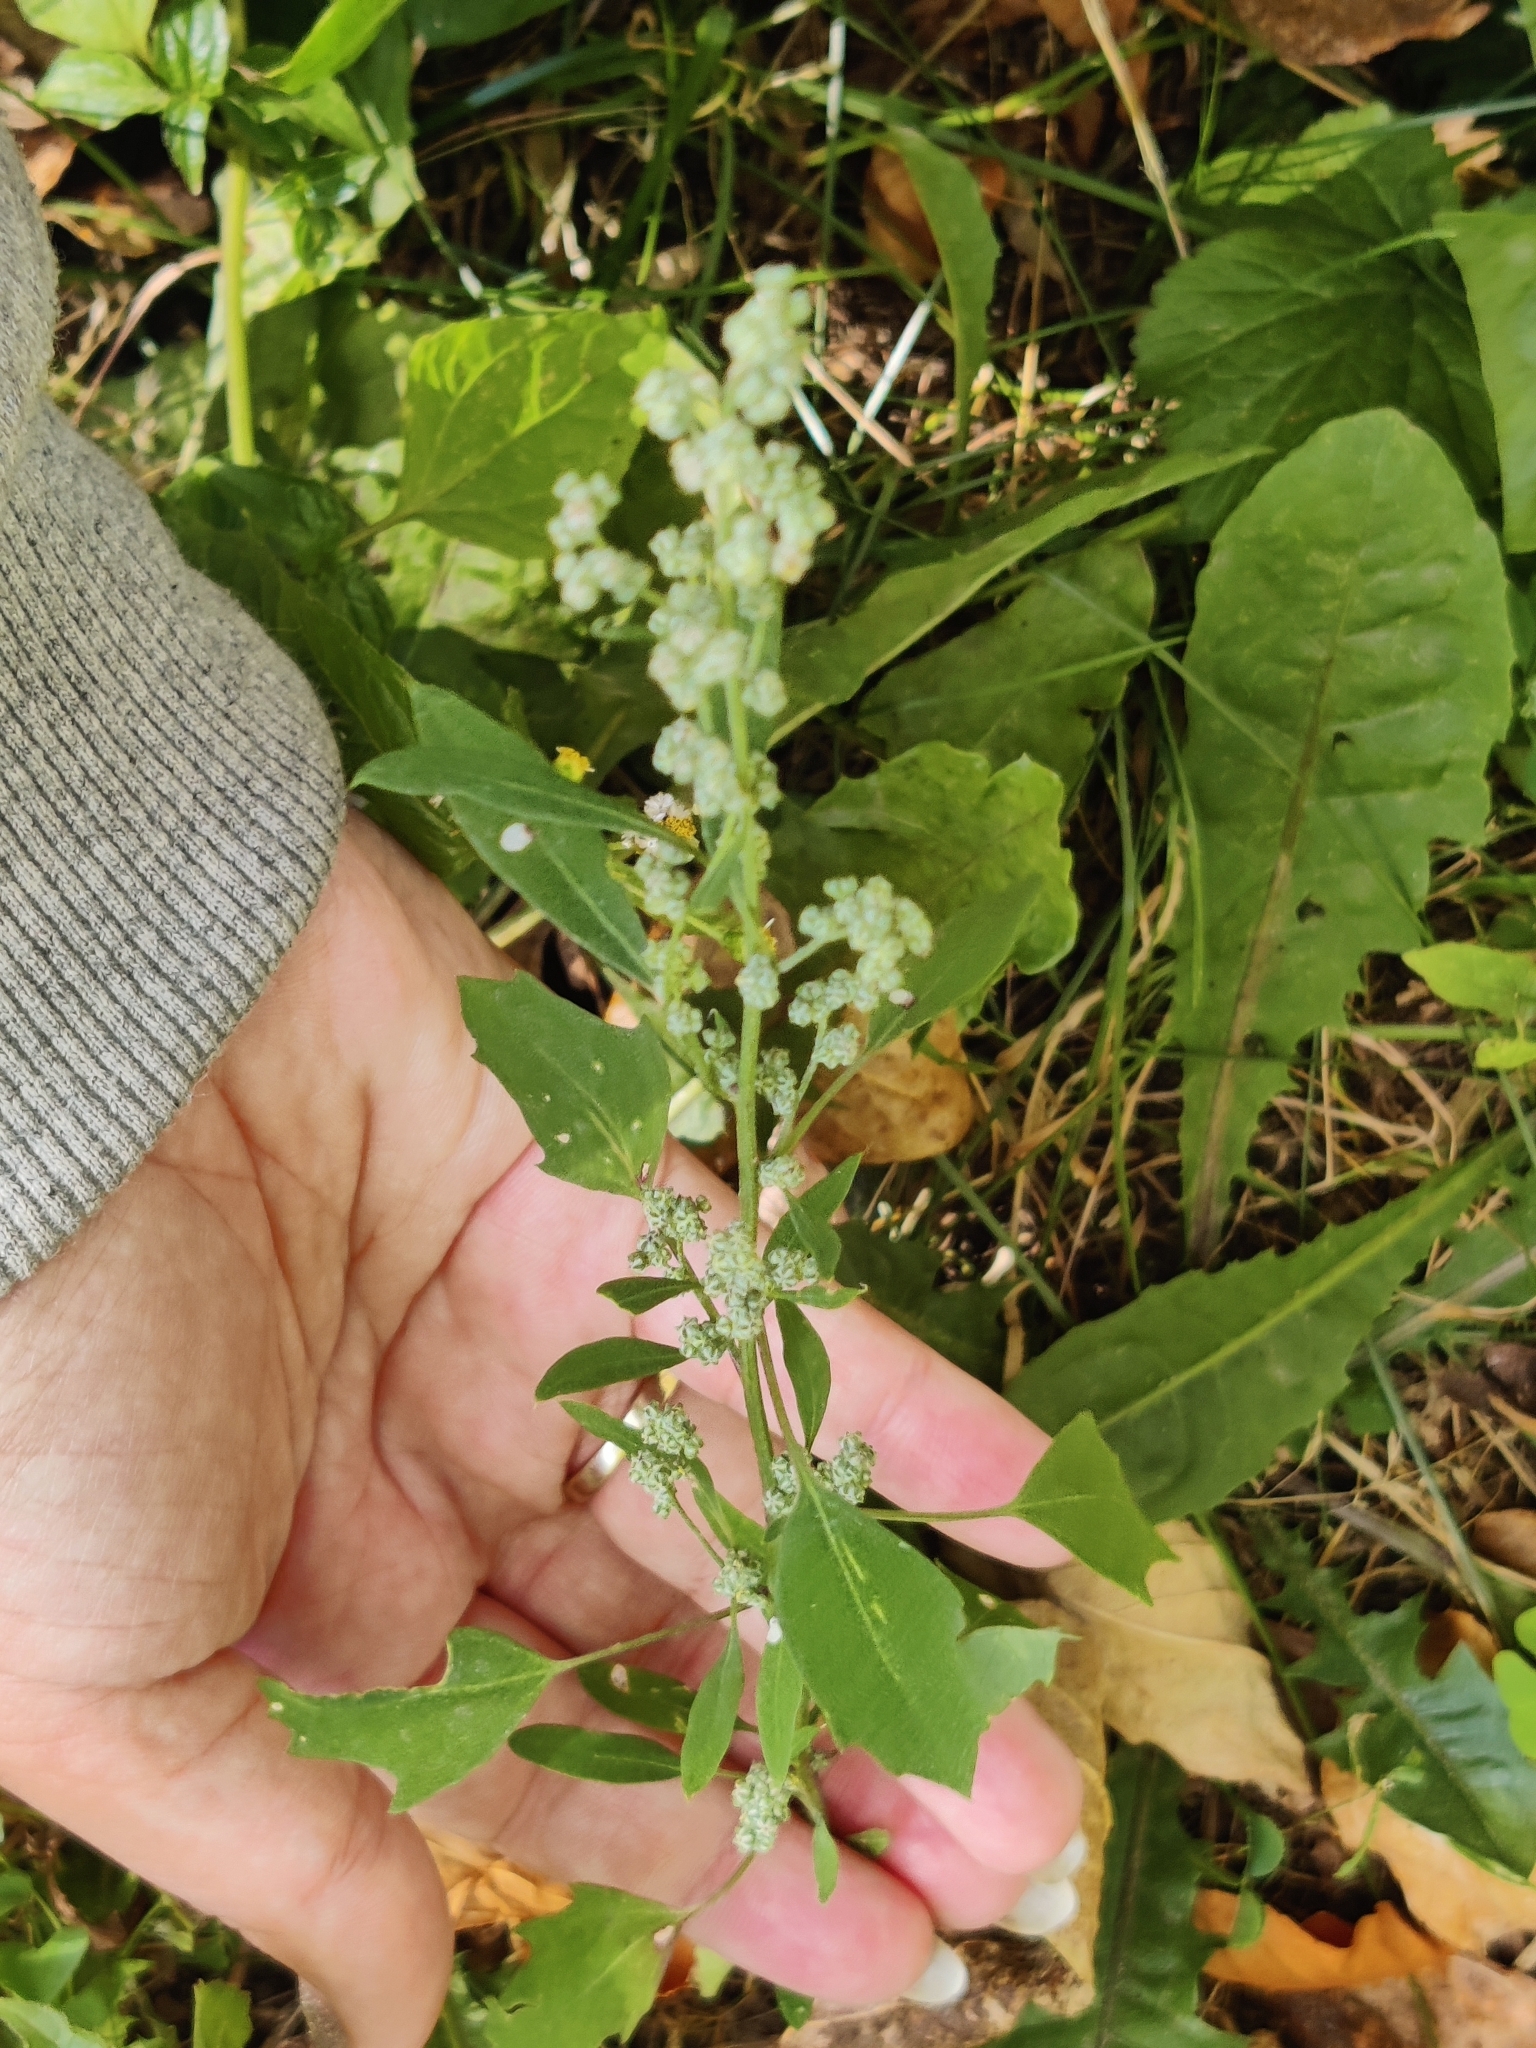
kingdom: Plantae
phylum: Tracheophyta
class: Magnoliopsida
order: Caryophyllales
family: Amaranthaceae
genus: Chenopodium
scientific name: Chenopodium album
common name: Fat-hen
